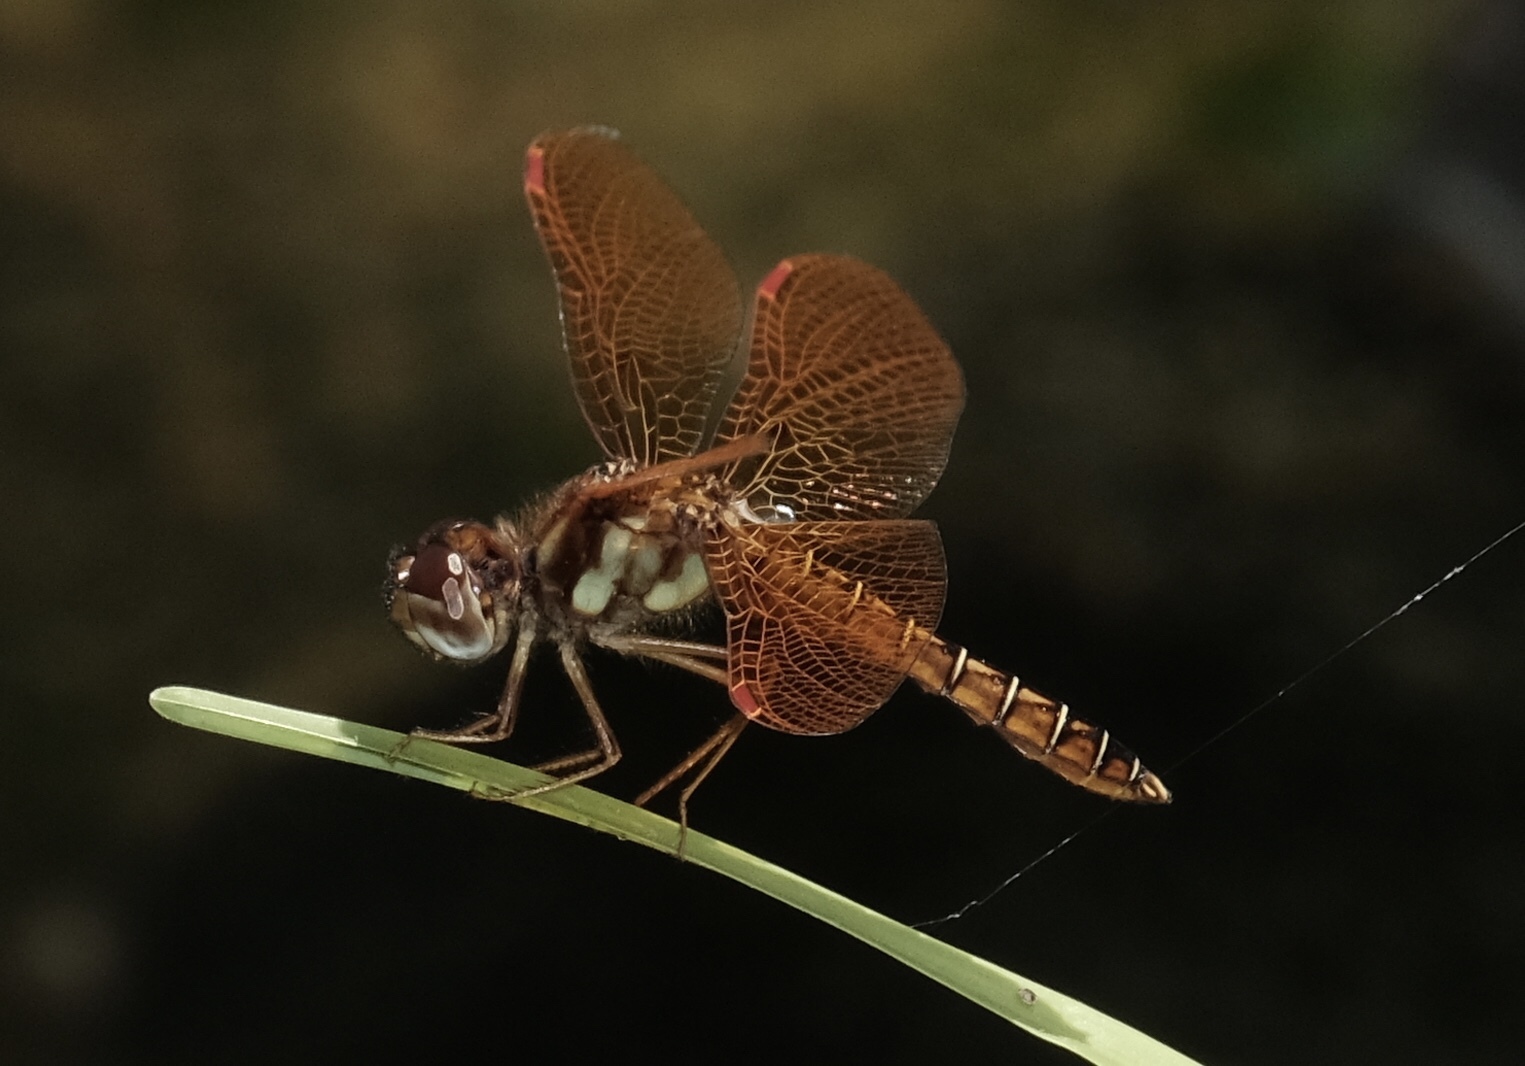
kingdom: Animalia
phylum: Arthropoda
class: Insecta
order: Odonata
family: Libellulidae
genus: Perithemis
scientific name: Perithemis tenera
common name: Eastern amberwing
